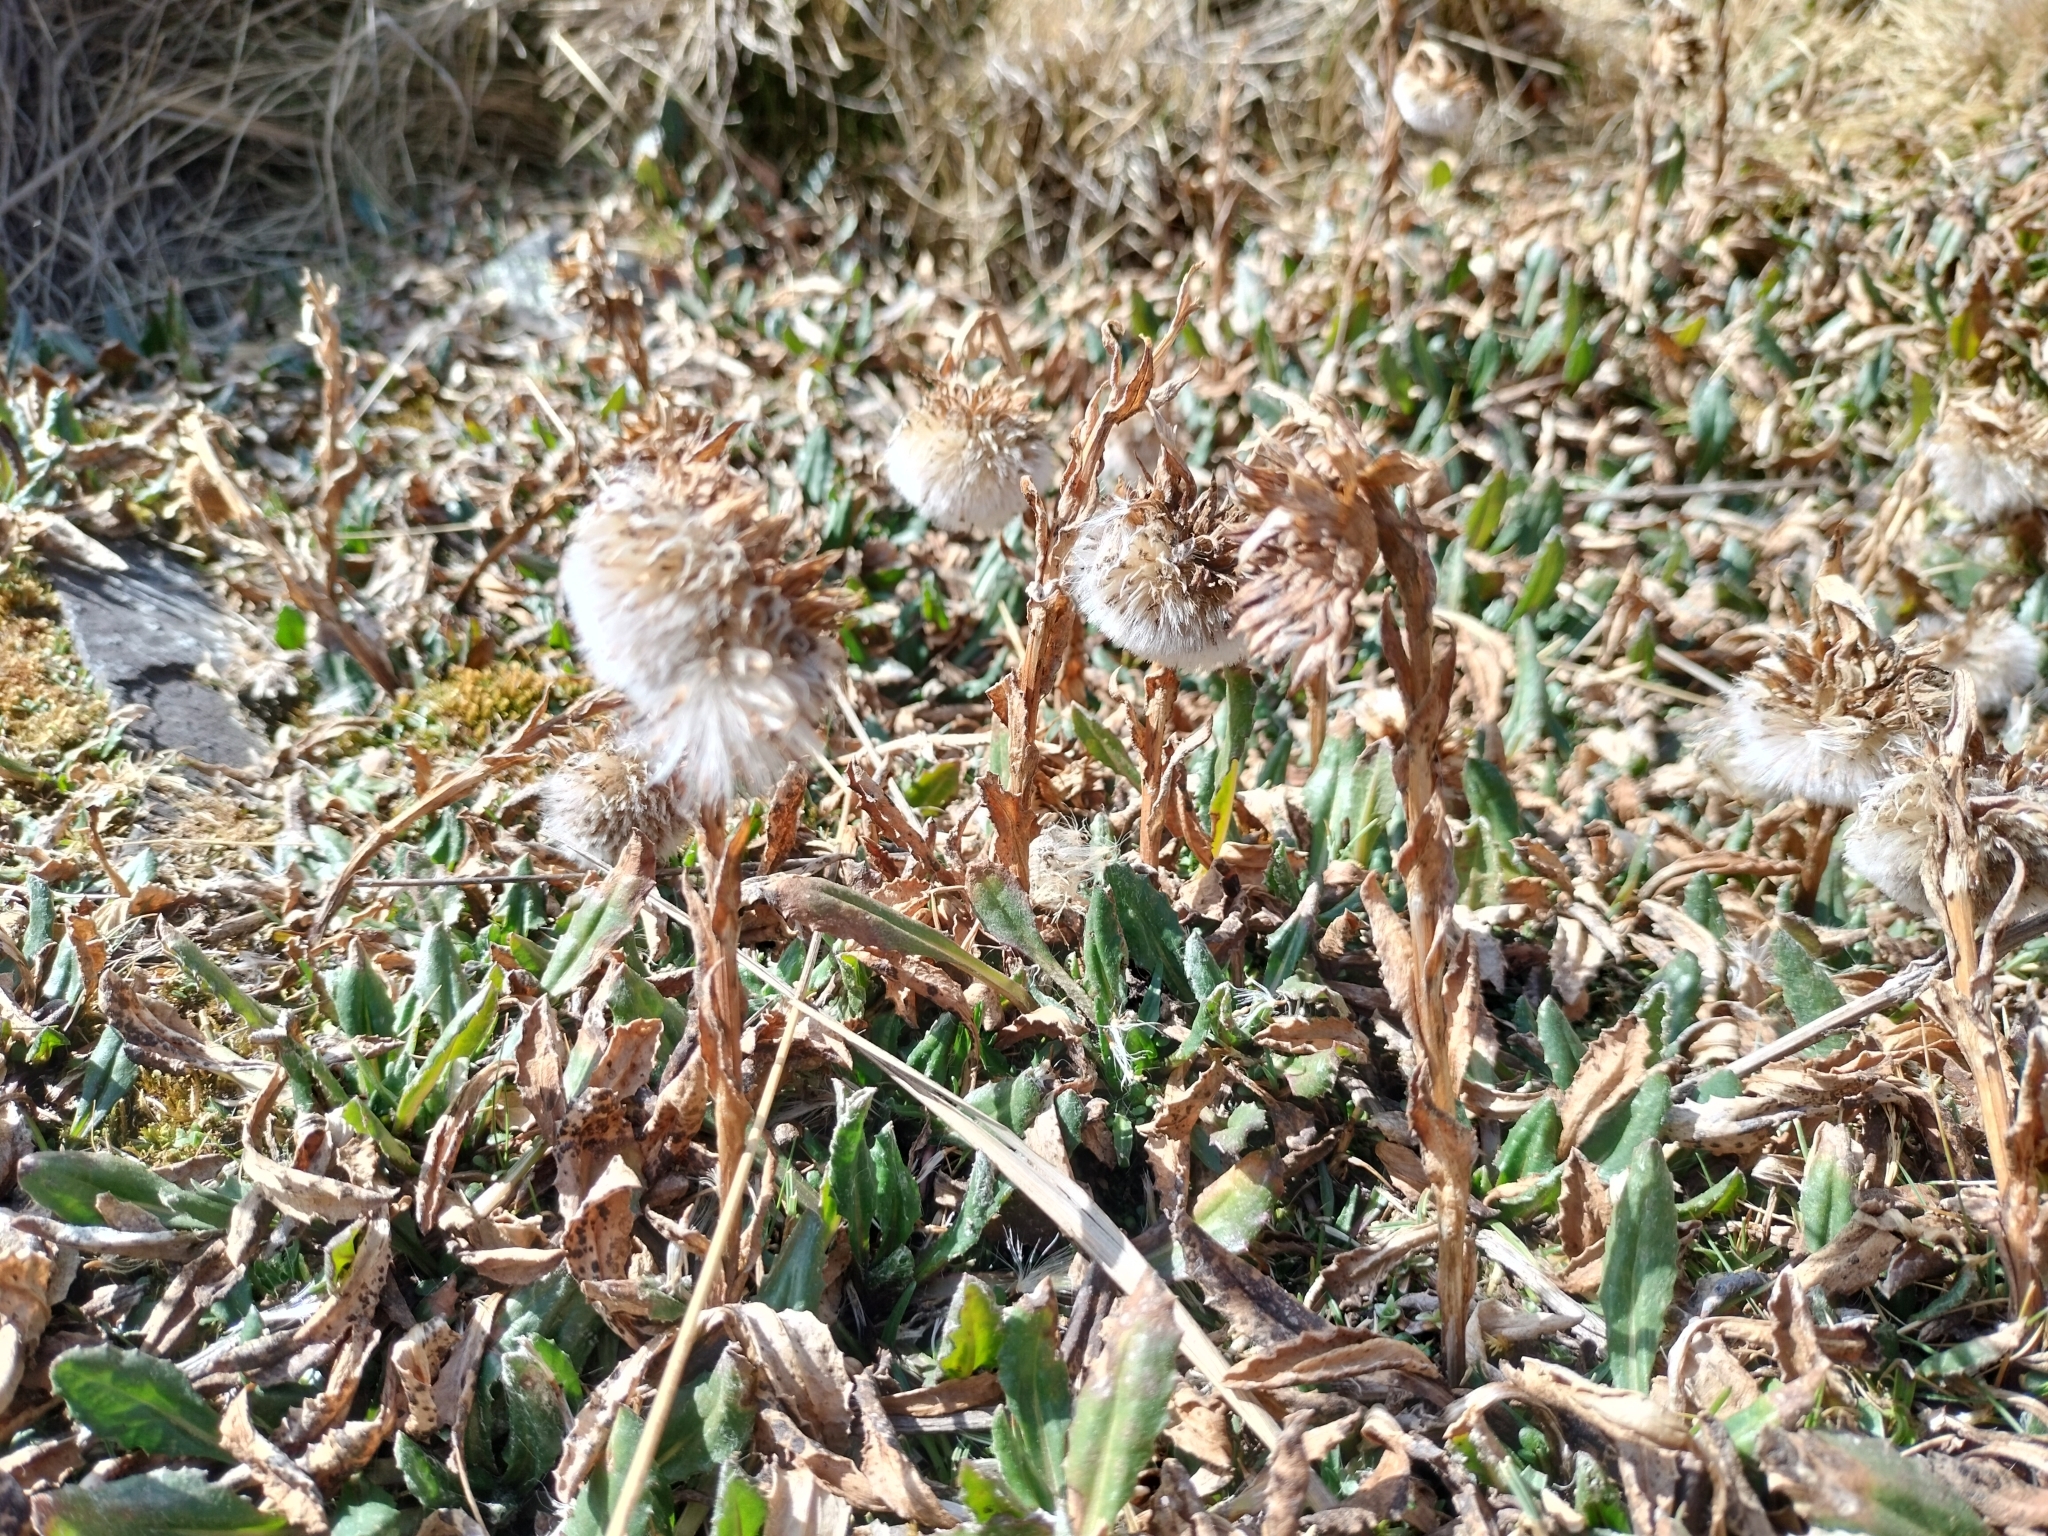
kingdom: Plantae
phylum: Tracheophyta
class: Magnoliopsida
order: Asterales
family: Asteraceae
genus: Senecio
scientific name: Senecio serratifolius
